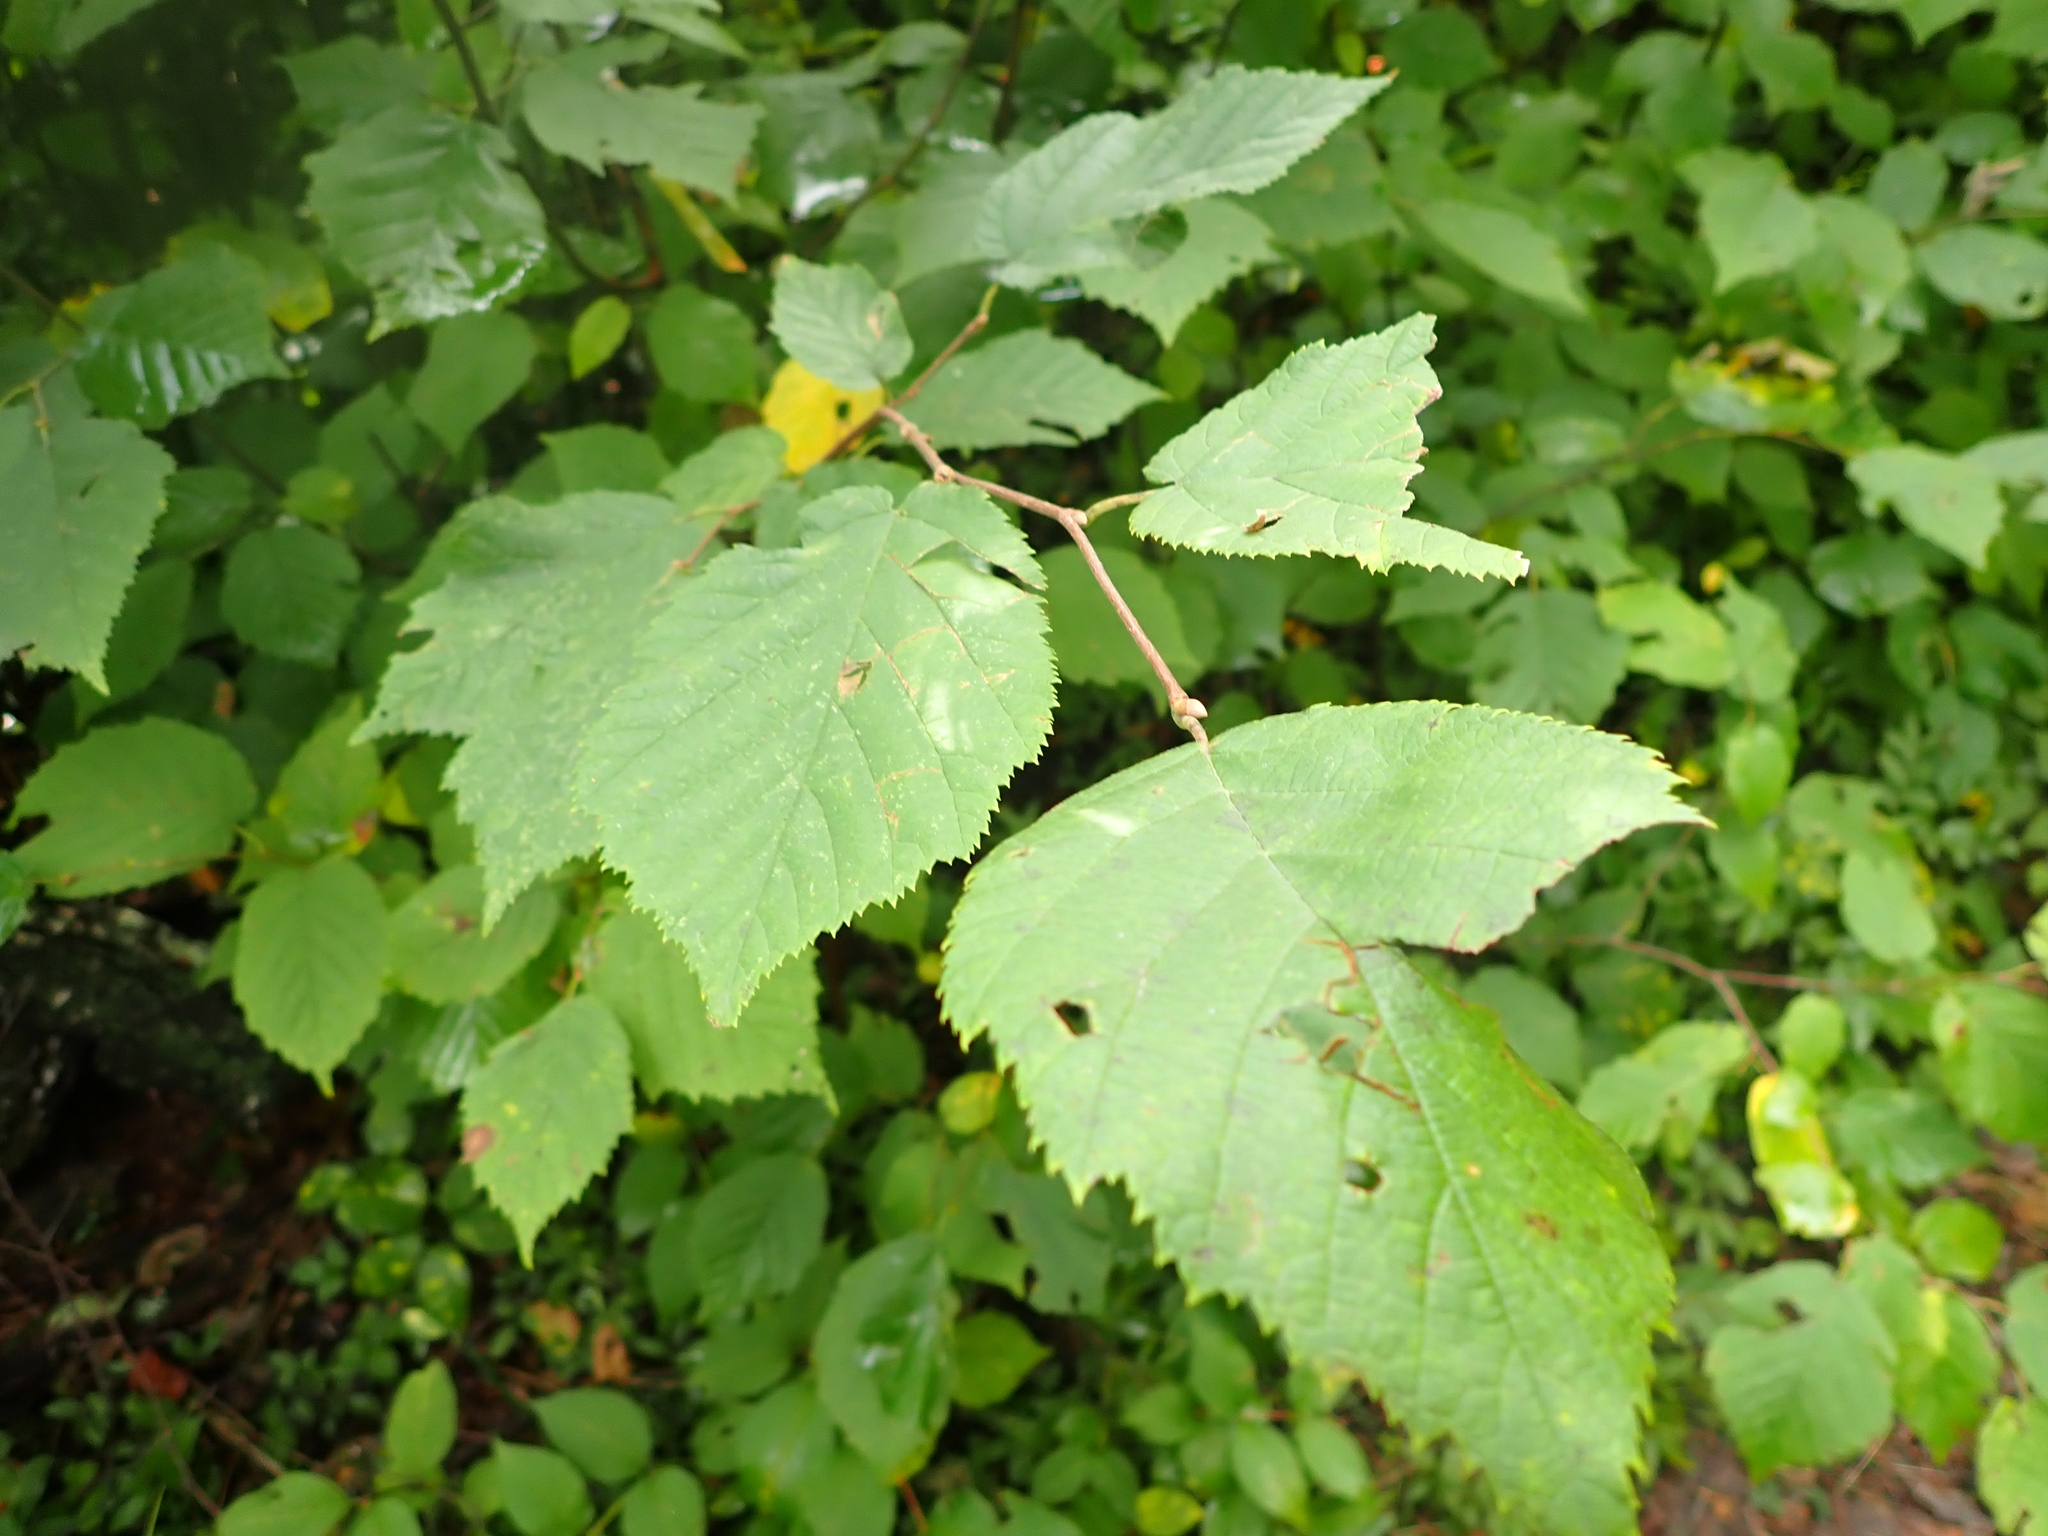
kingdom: Plantae
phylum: Tracheophyta
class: Magnoliopsida
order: Fagales
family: Betulaceae
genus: Corylus
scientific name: Corylus cornuta
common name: Beaked hazel
